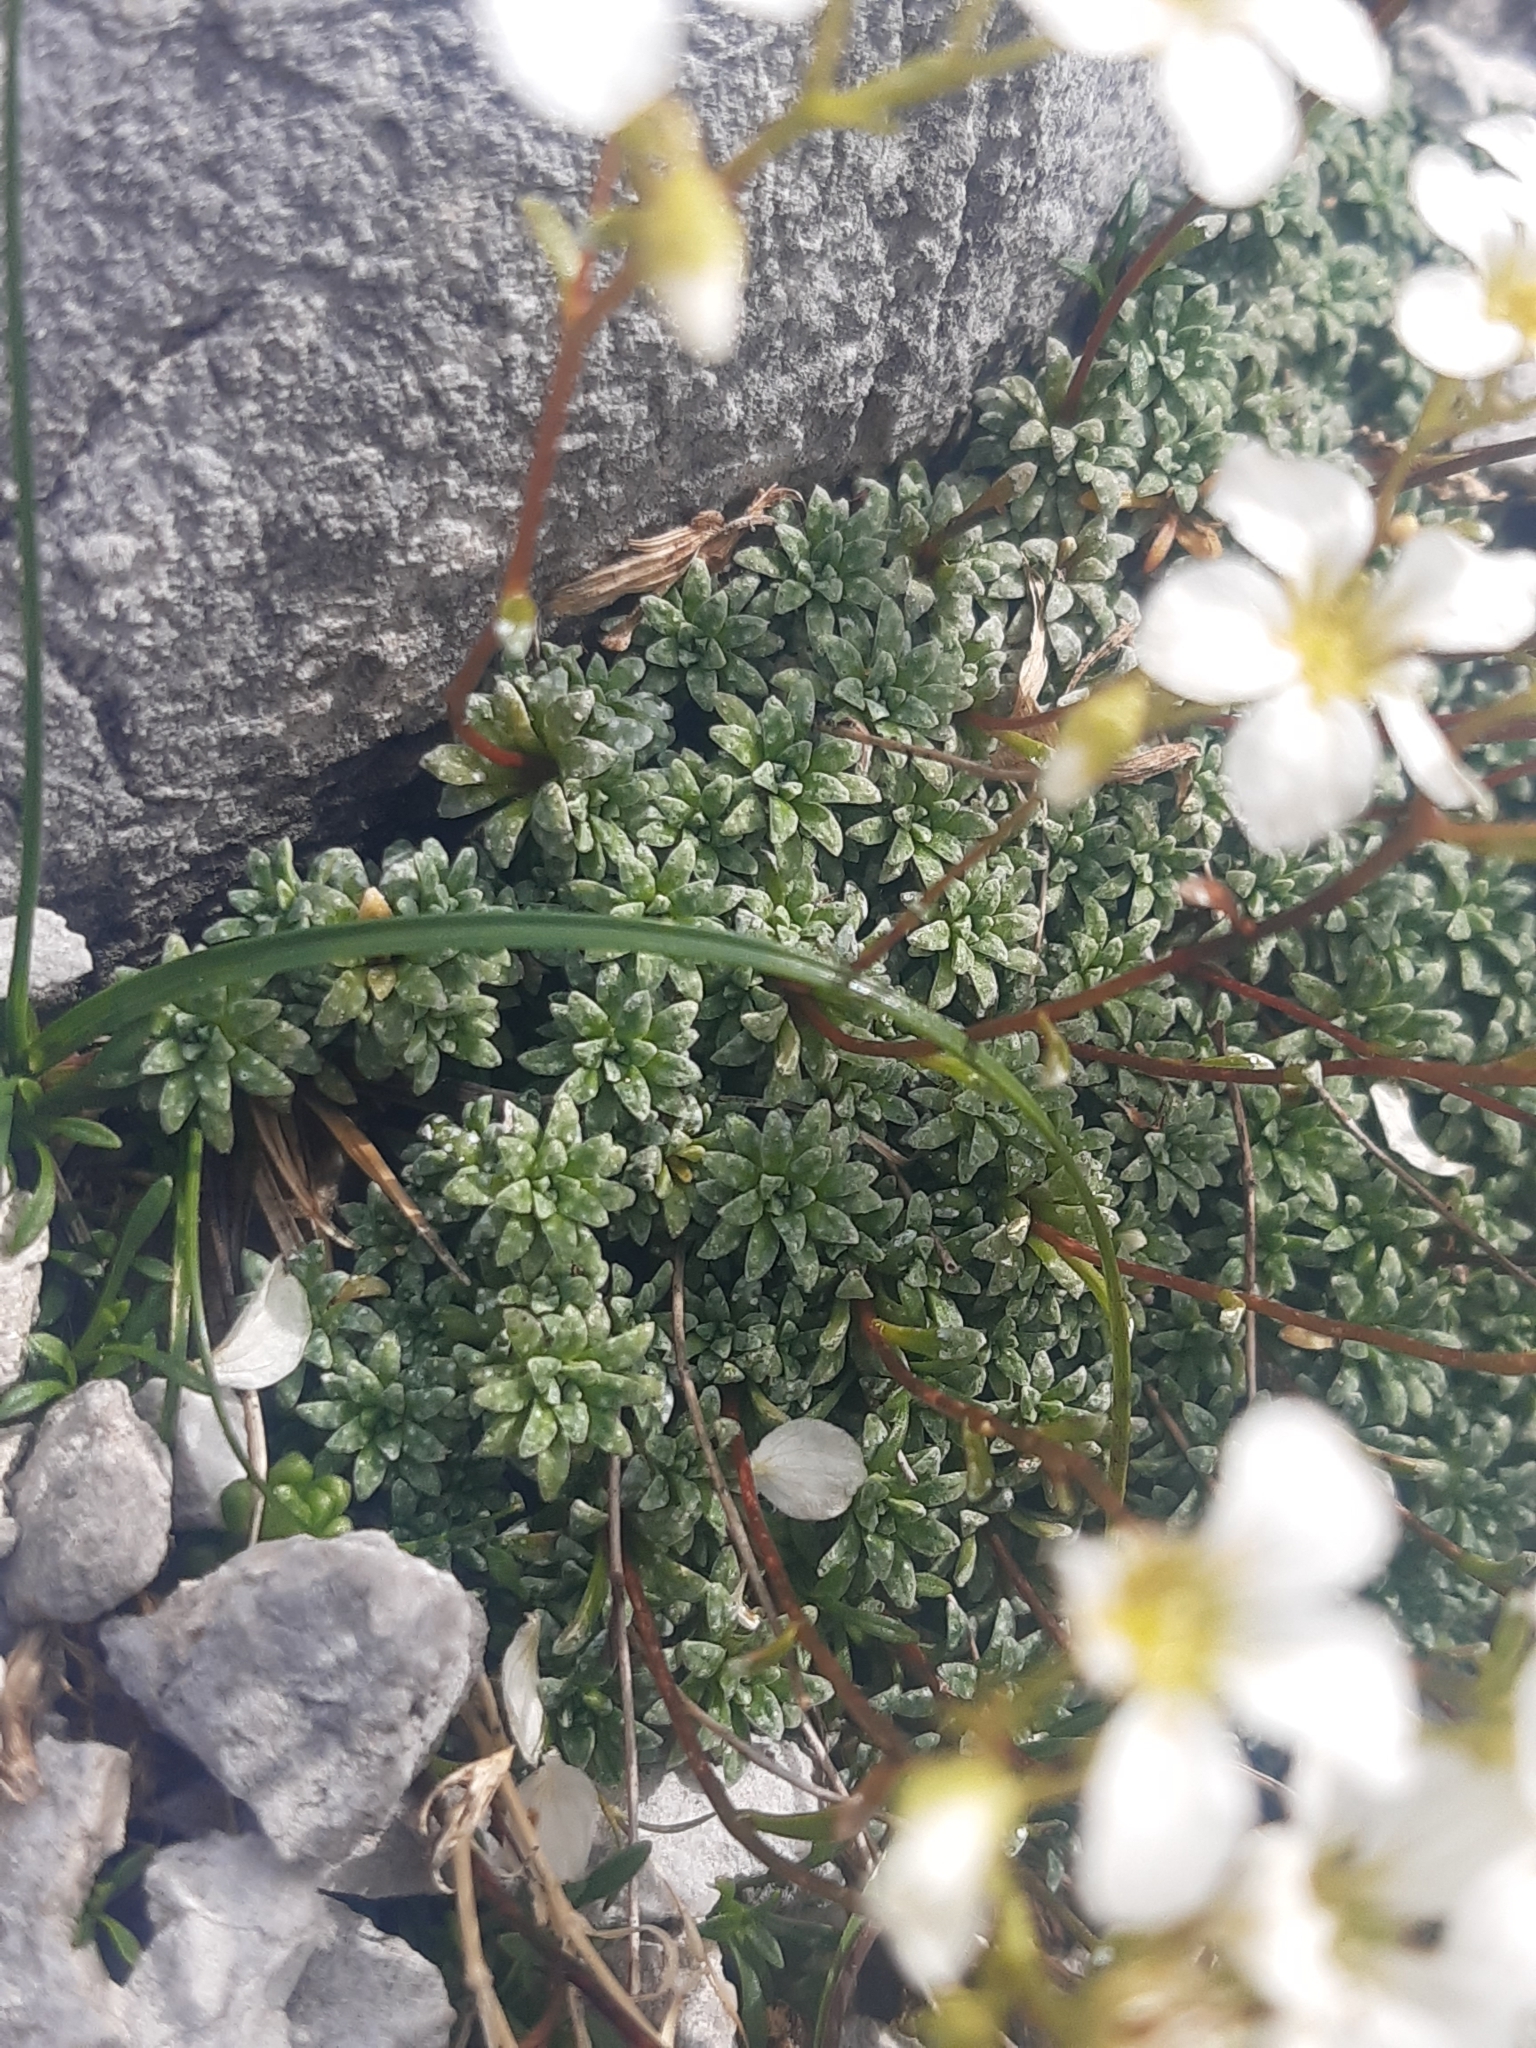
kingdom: Plantae
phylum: Tracheophyta
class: Magnoliopsida
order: Saxifragales
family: Saxifragaceae
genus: Saxifraga
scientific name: Saxifraga caesia
